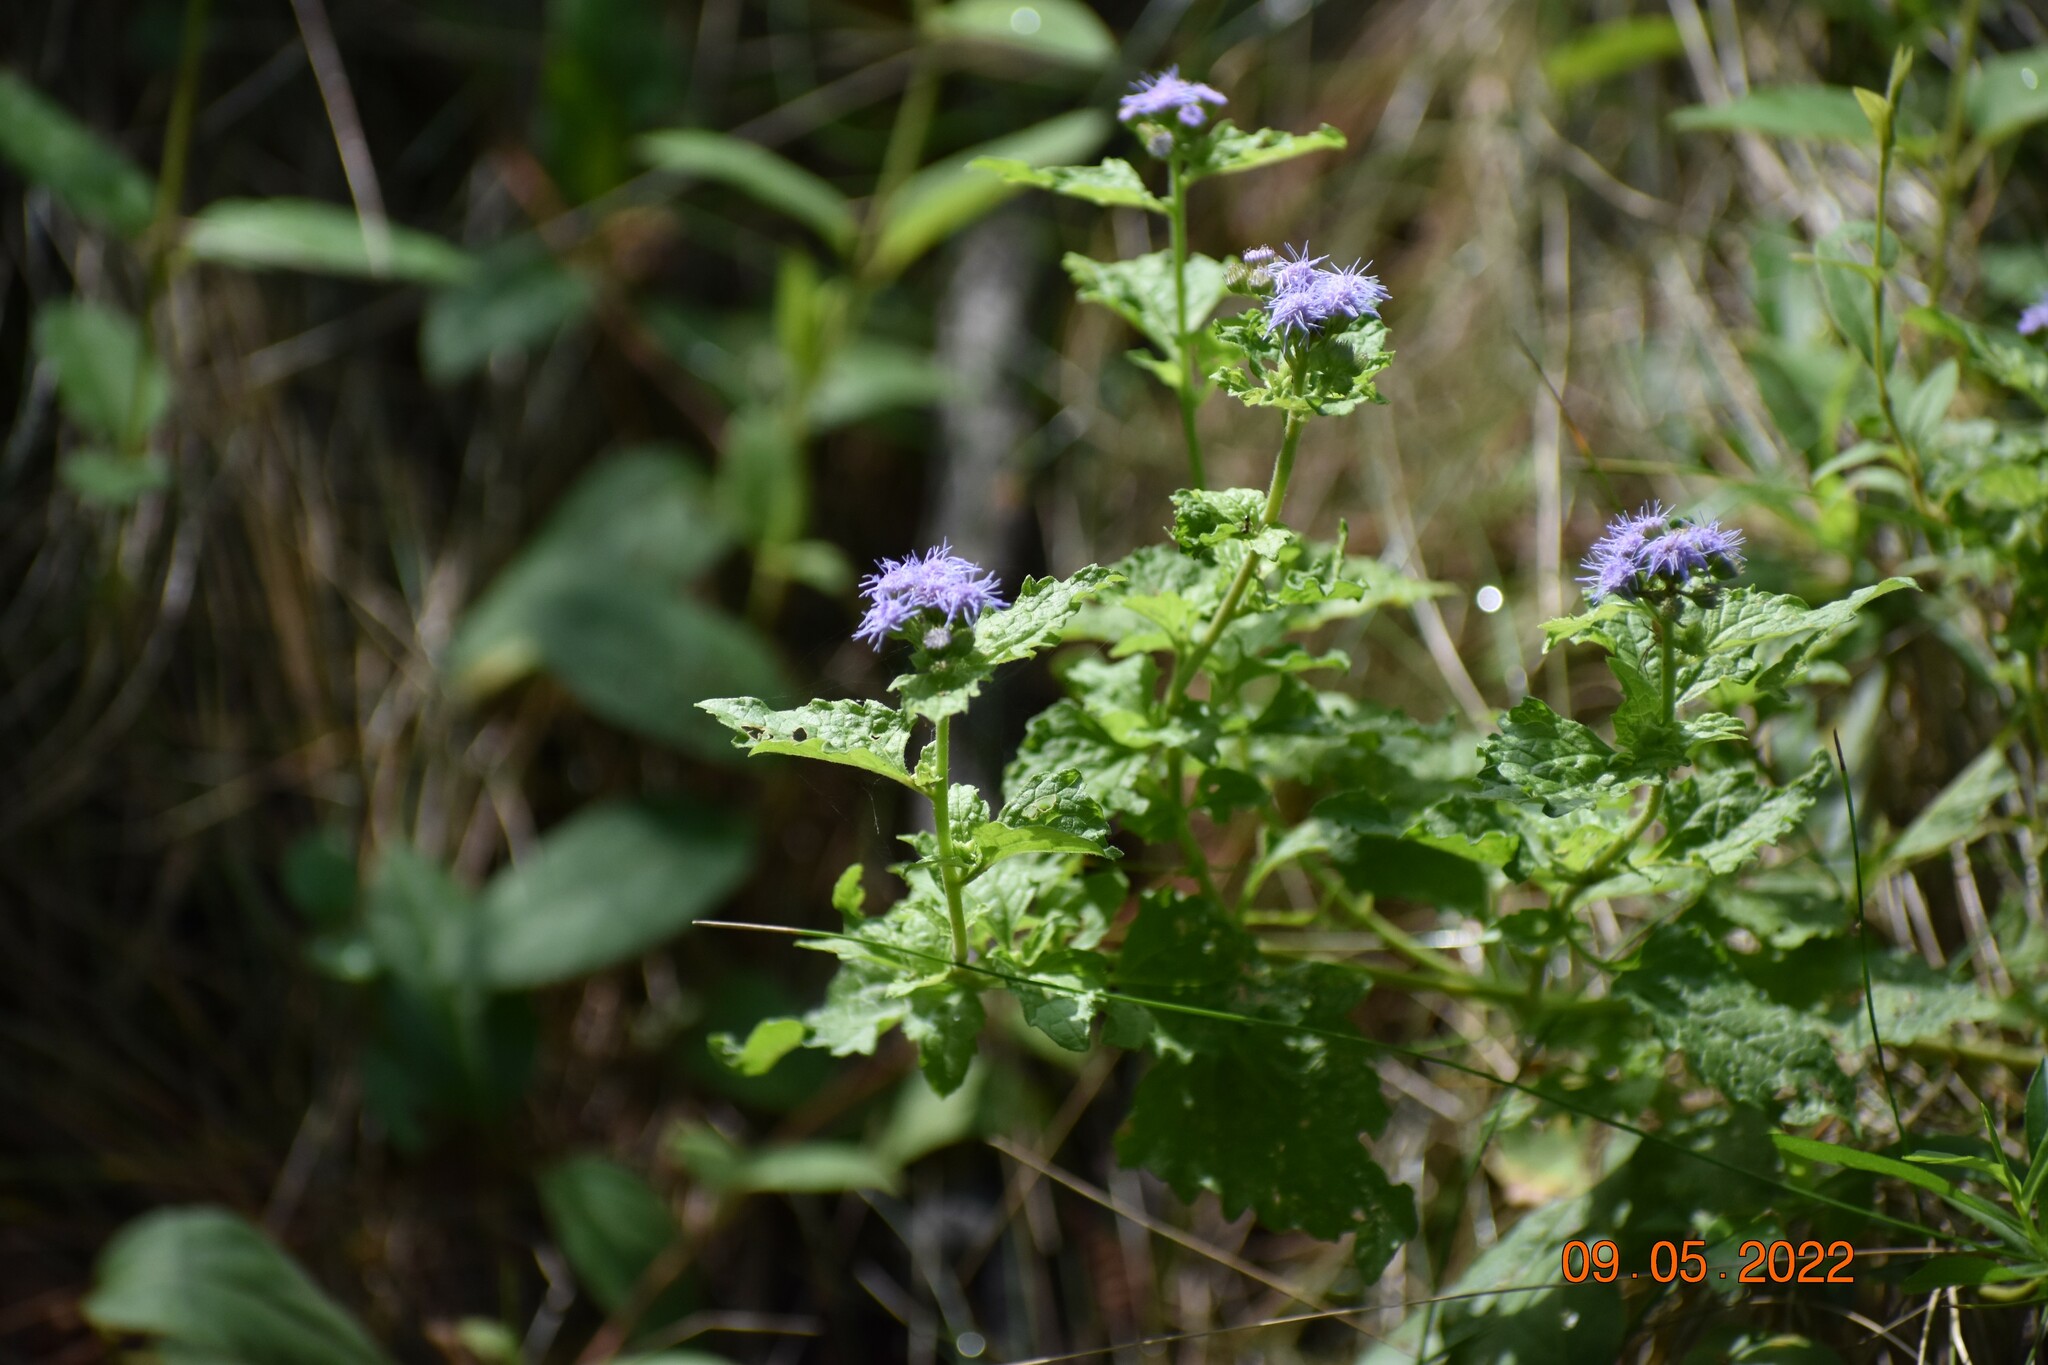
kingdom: Plantae
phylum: Tracheophyta
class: Magnoliopsida
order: Asterales
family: Asteraceae
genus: Conoclinium
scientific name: Conoclinium coelestinum
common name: Blue mistflower
